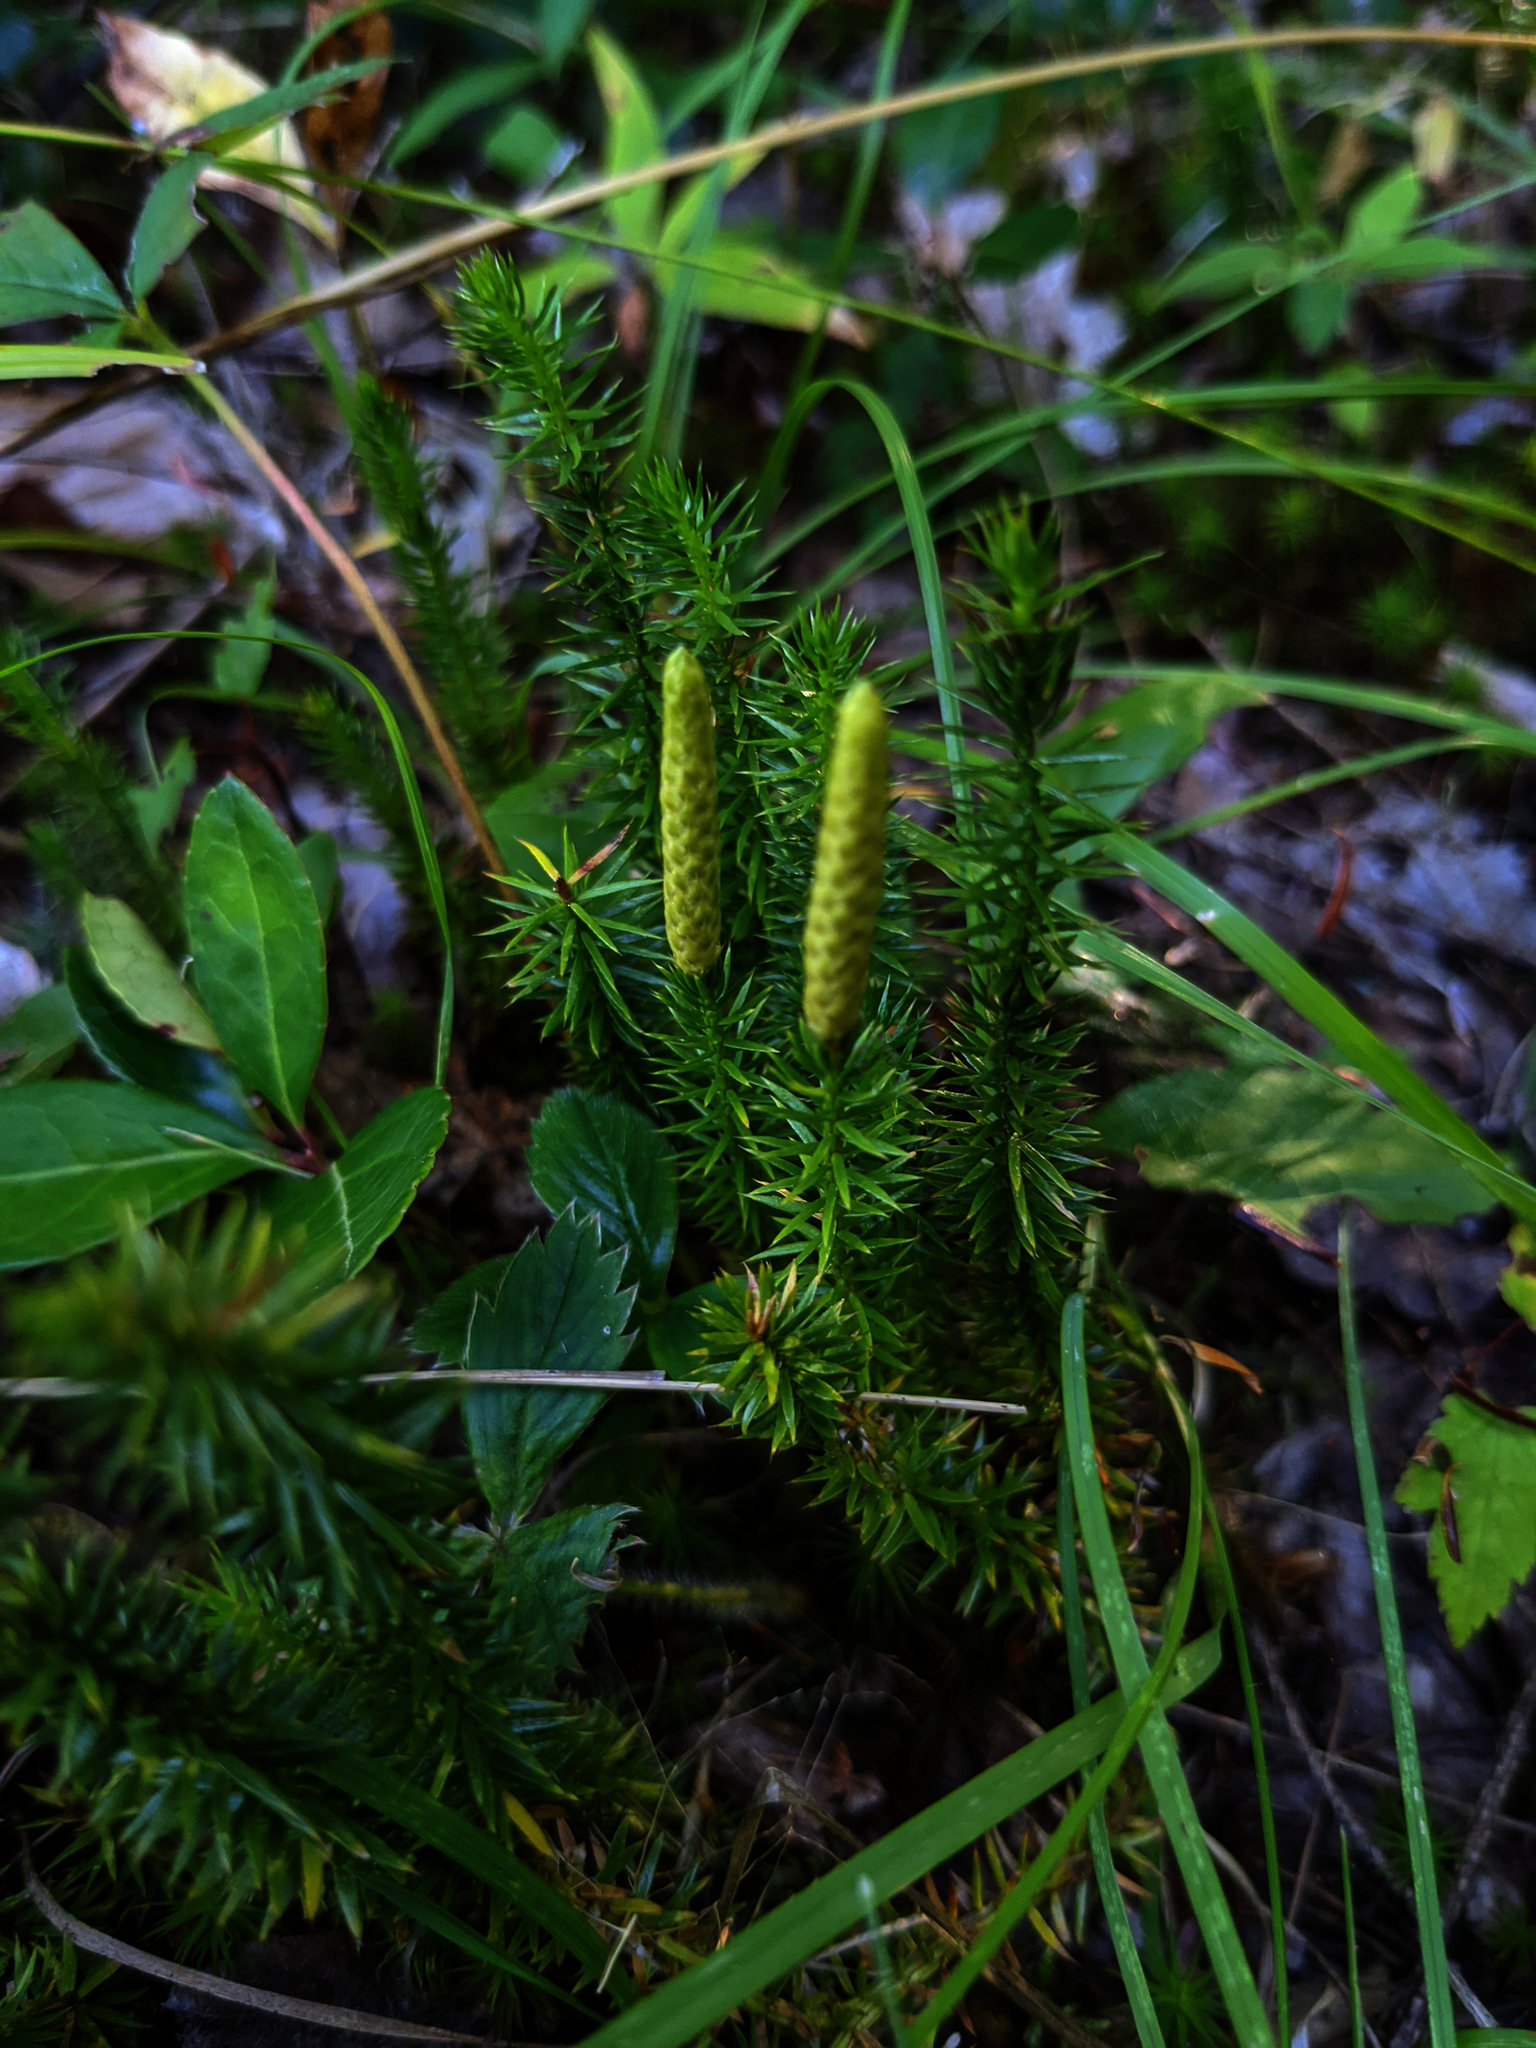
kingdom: Plantae
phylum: Tracheophyta
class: Lycopodiopsida
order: Lycopodiales
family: Lycopodiaceae
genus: Spinulum
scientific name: Spinulum annotinum
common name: Interrupted club-moss
